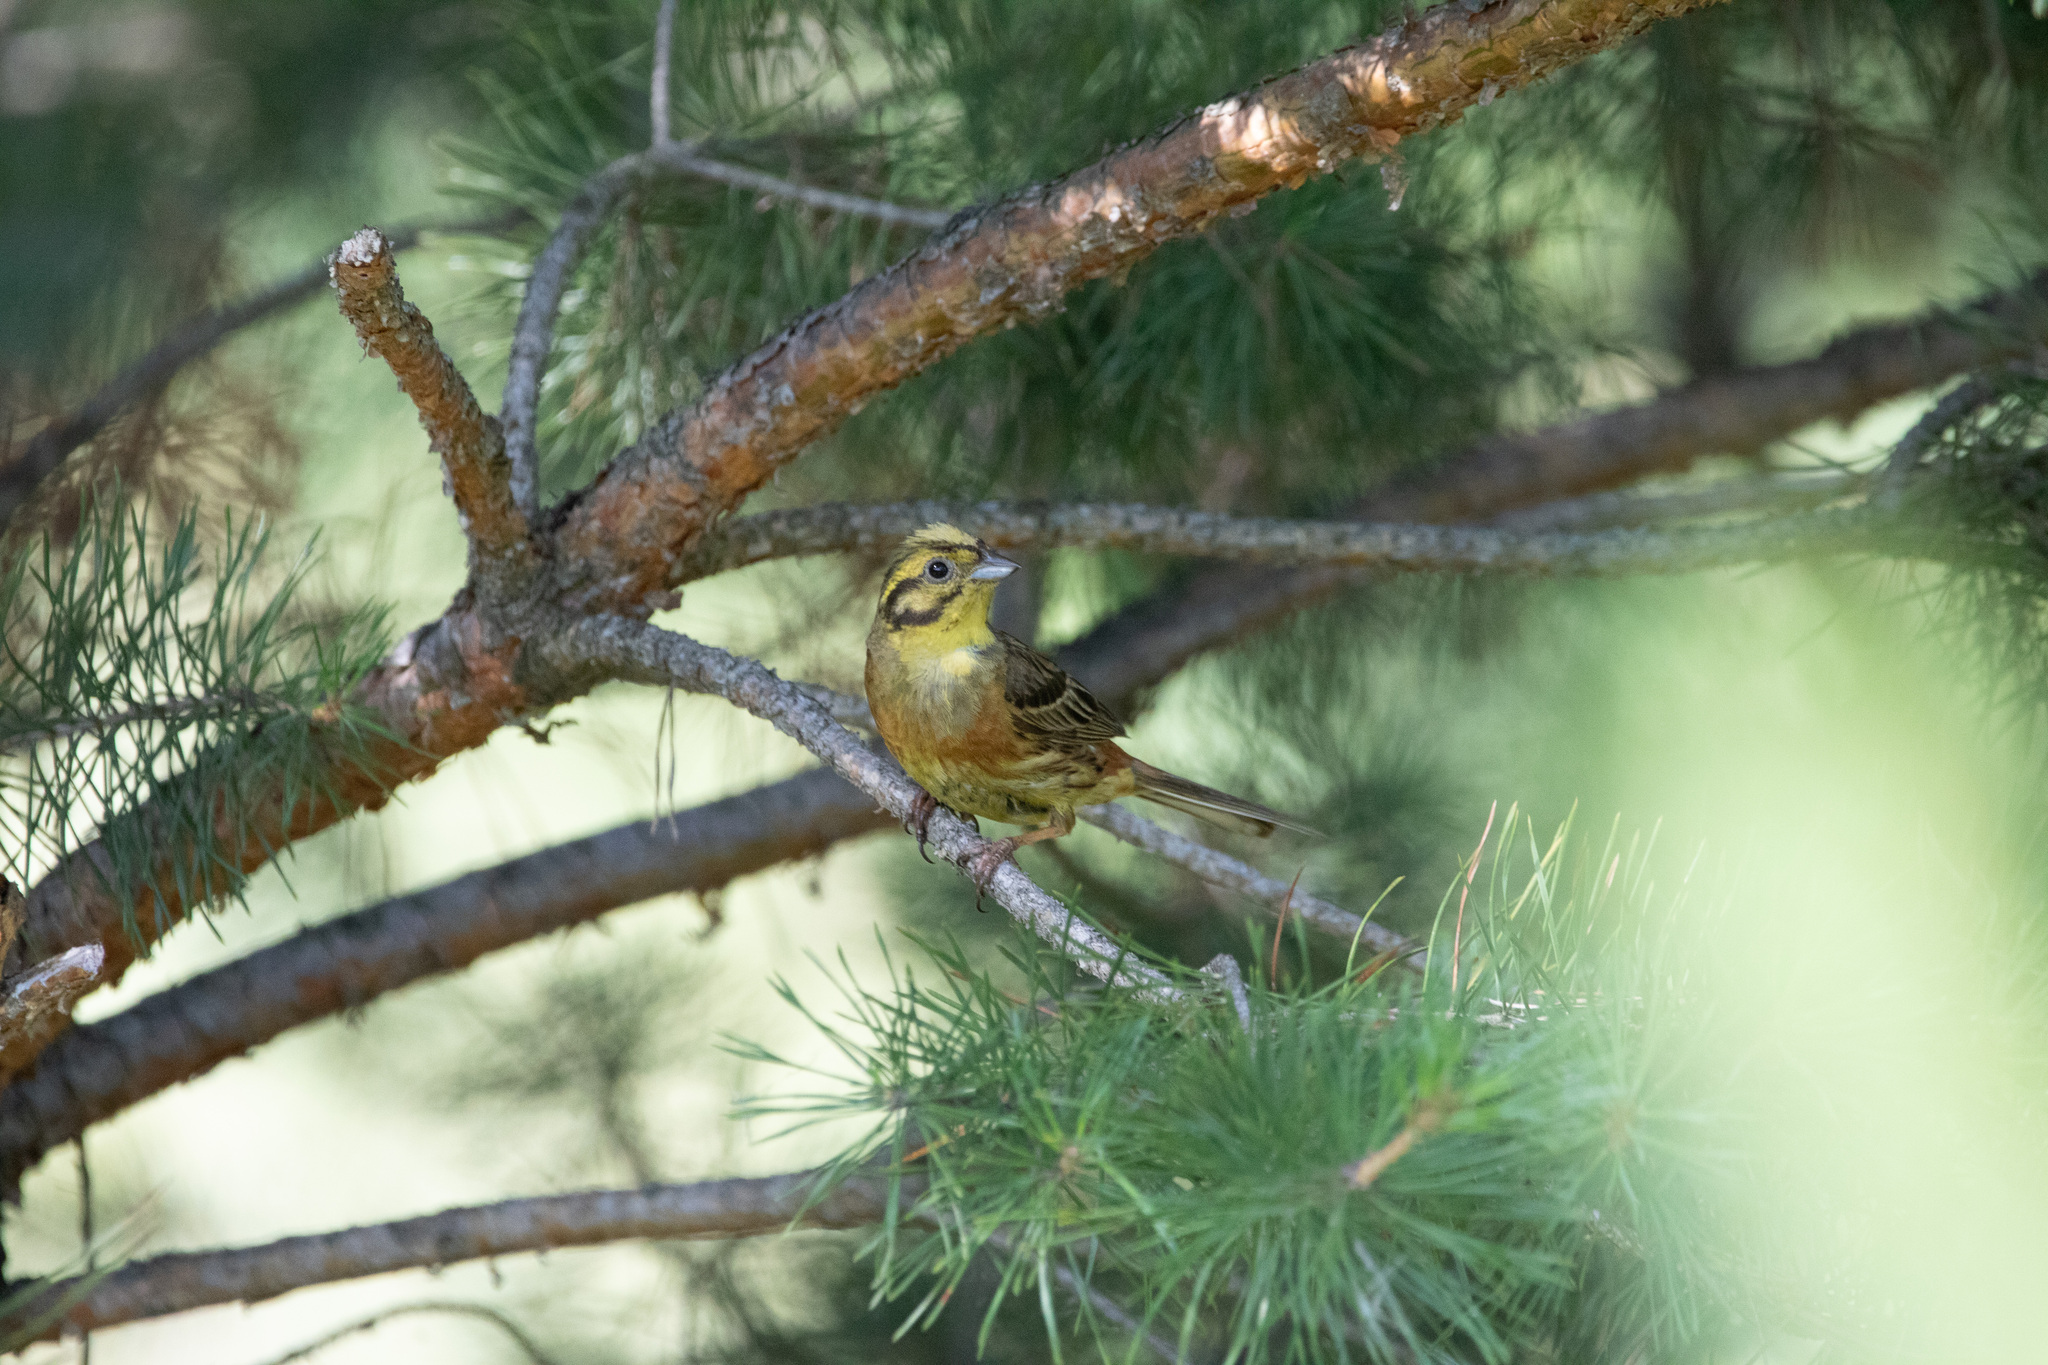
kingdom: Animalia
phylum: Chordata
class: Aves
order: Passeriformes
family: Emberizidae
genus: Emberiza
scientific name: Emberiza citrinella
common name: Yellowhammer
